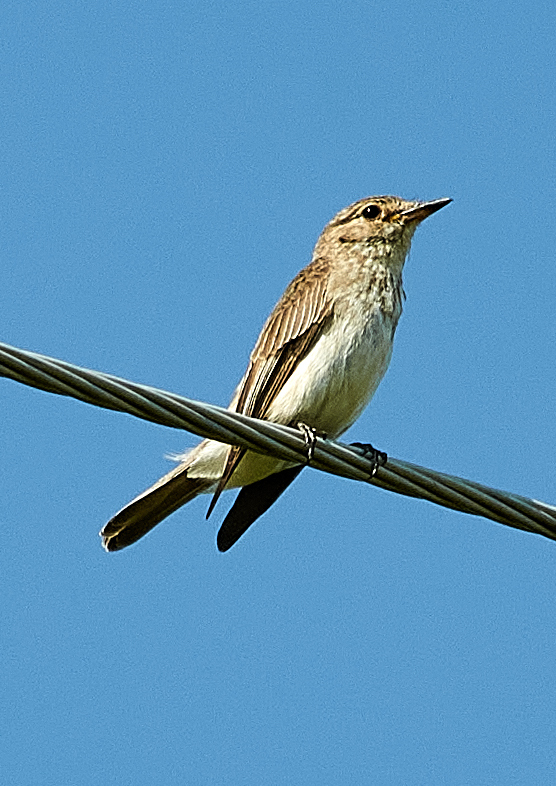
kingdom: Animalia
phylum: Chordata
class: Aves
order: Passeriformes
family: Muscicapidae
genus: Muscicapa
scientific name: Muscicapa striata
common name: Spotted flycatcher
